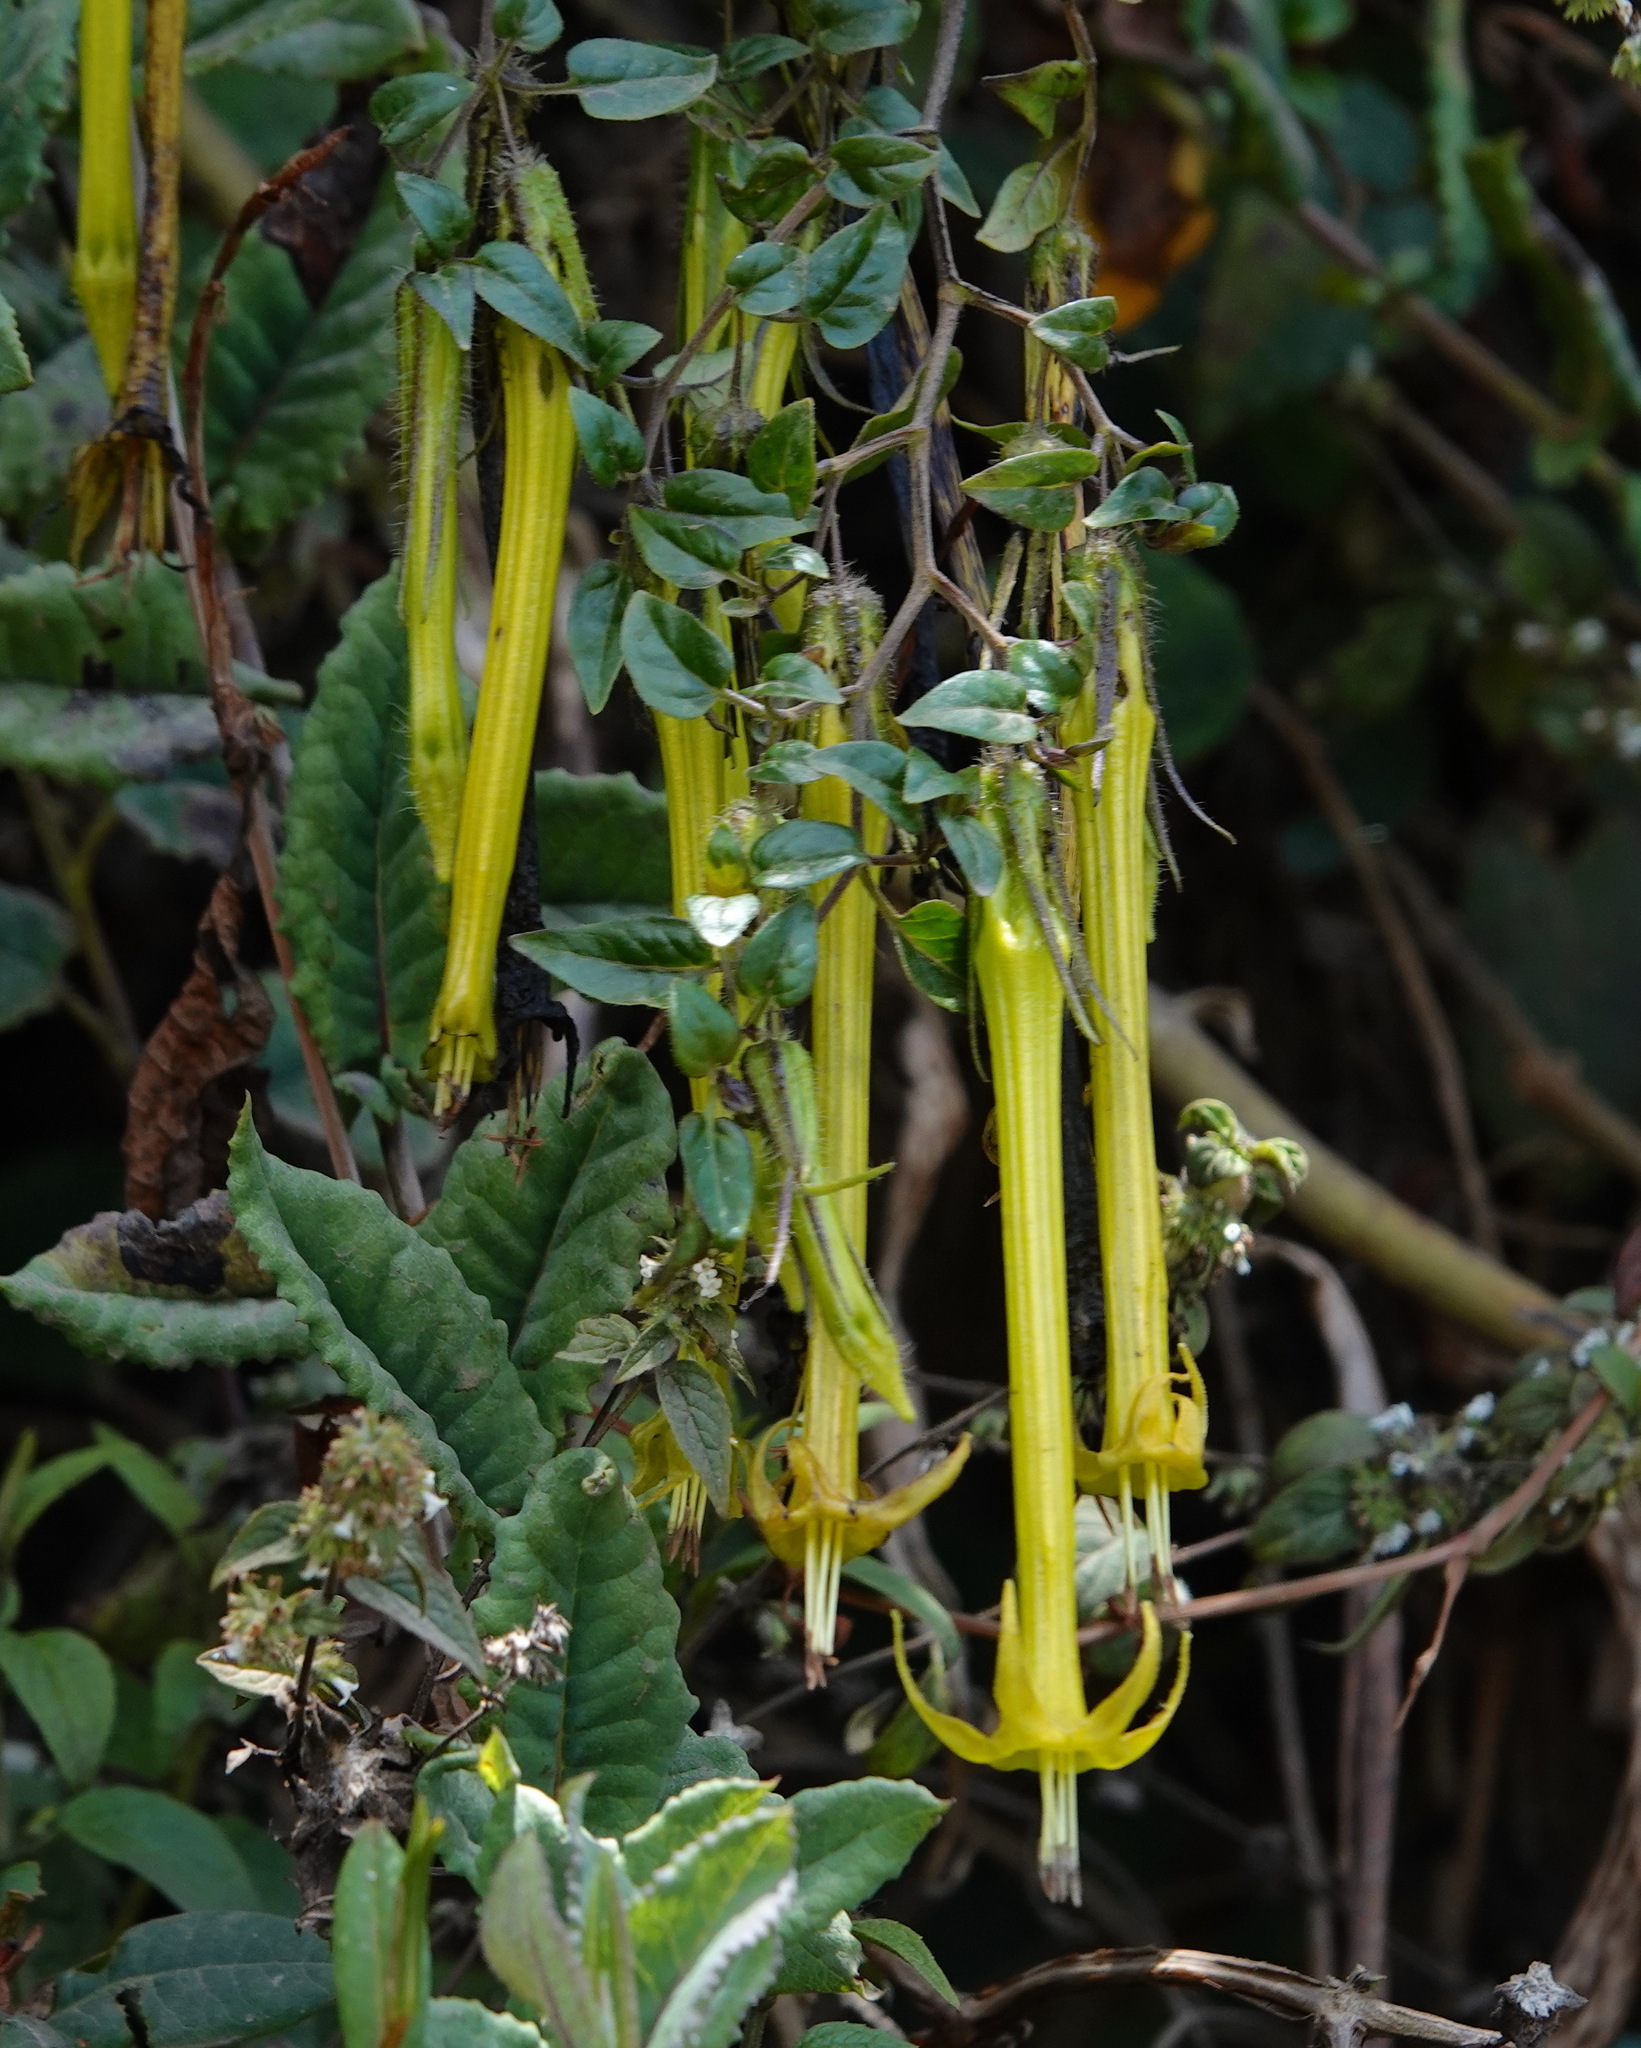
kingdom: Plantae
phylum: Tracheophyta
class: Magnoliopsida
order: Solanales
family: Solanaceae
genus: Salpichroa
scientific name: Salpichroa didierana
